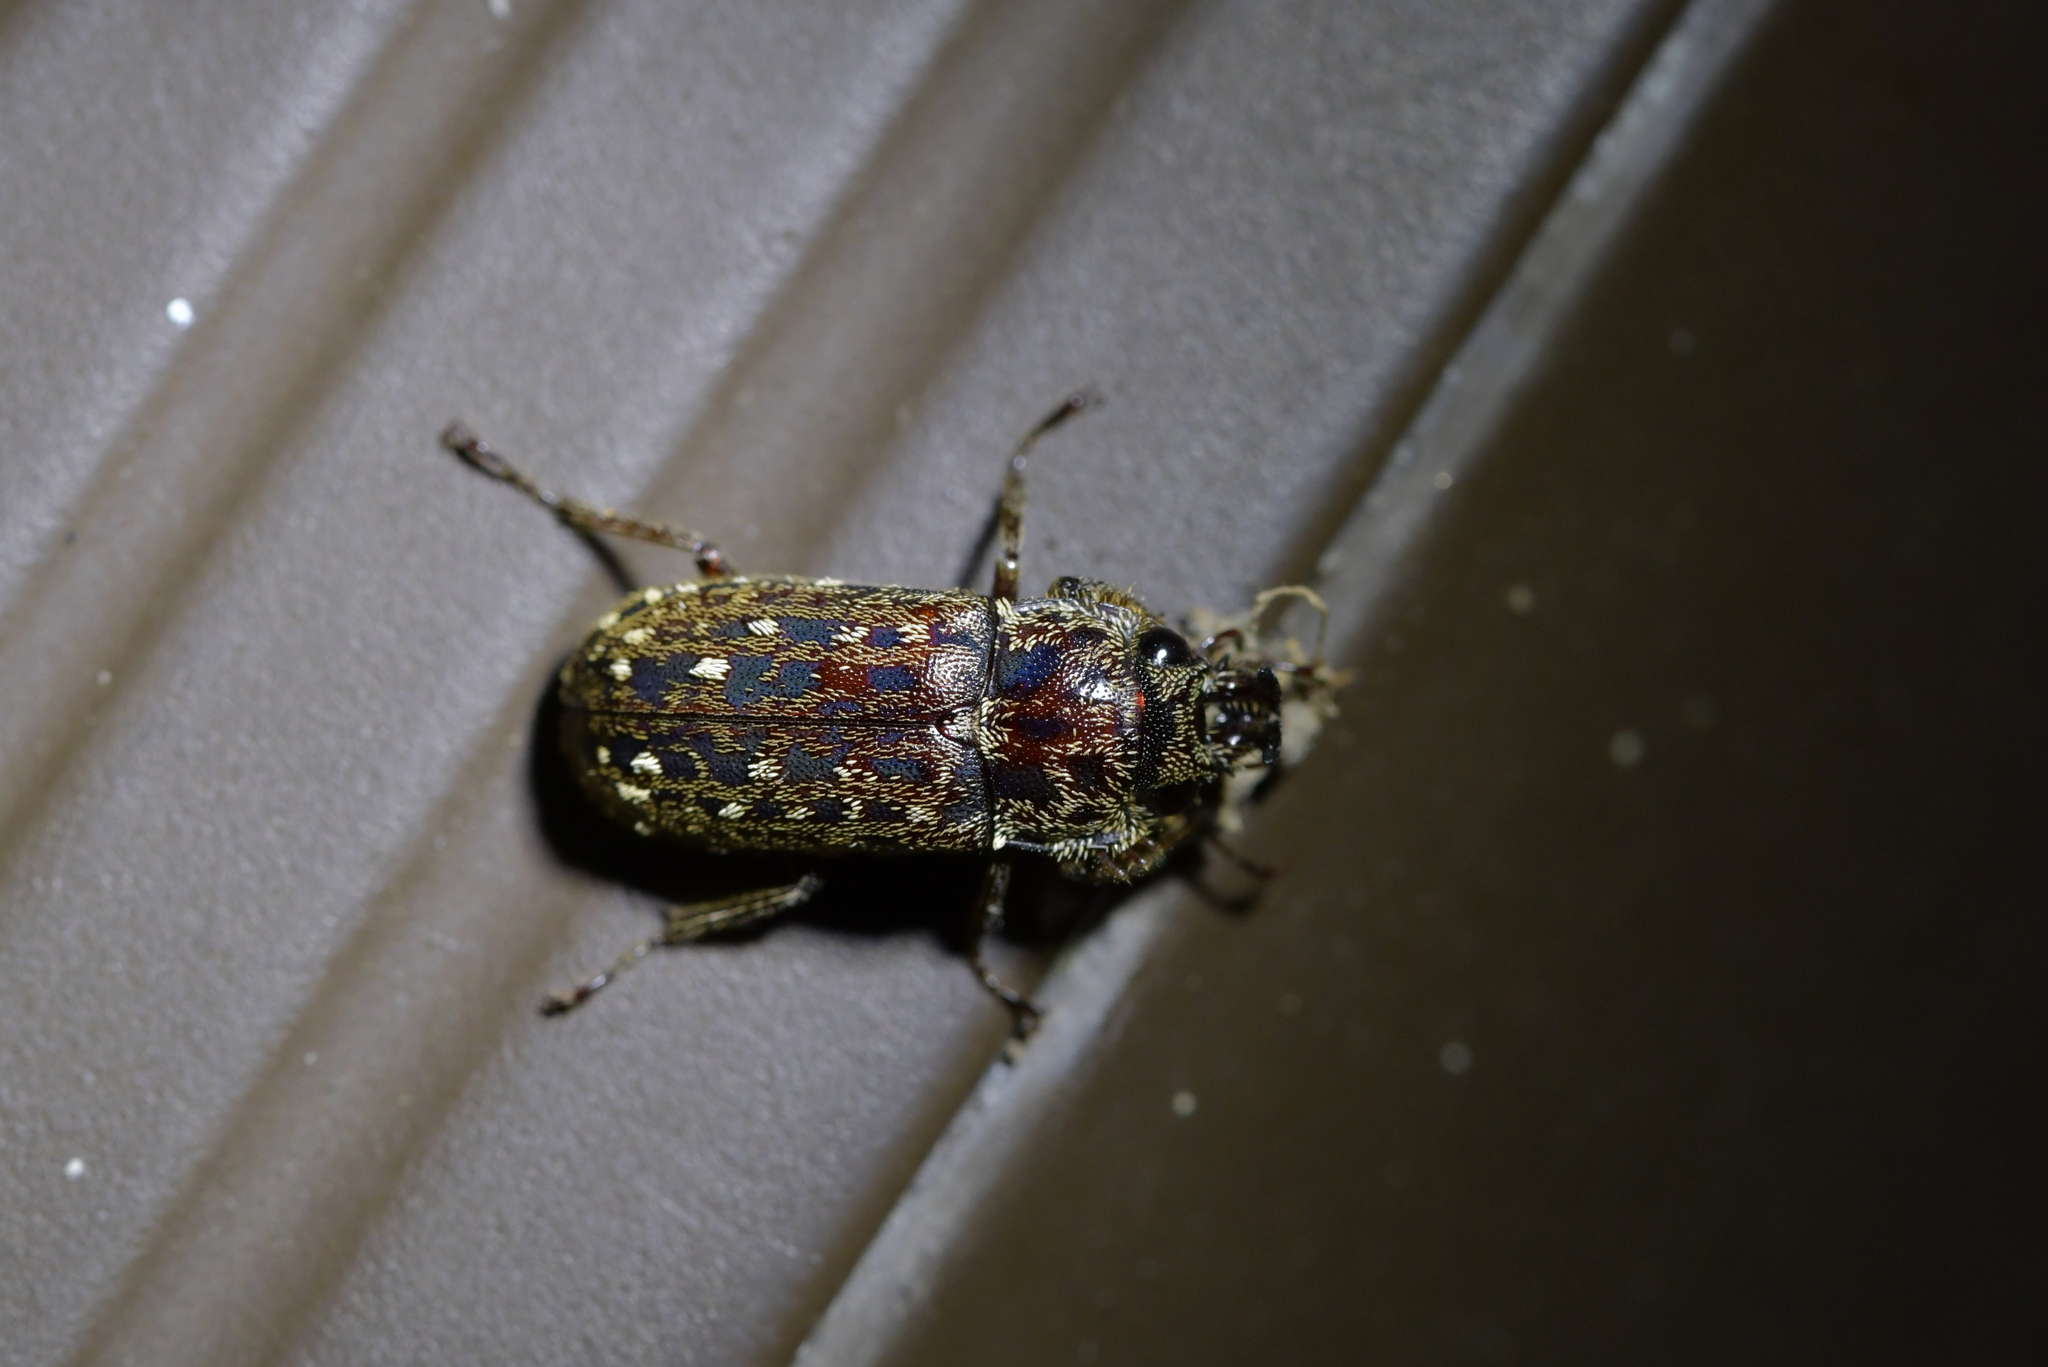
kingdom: Animalia
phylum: Arthropoda
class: Insecta
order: Coleoptera
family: Lucanidae
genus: Mitophyllus
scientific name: Mitophyllus irroratus
